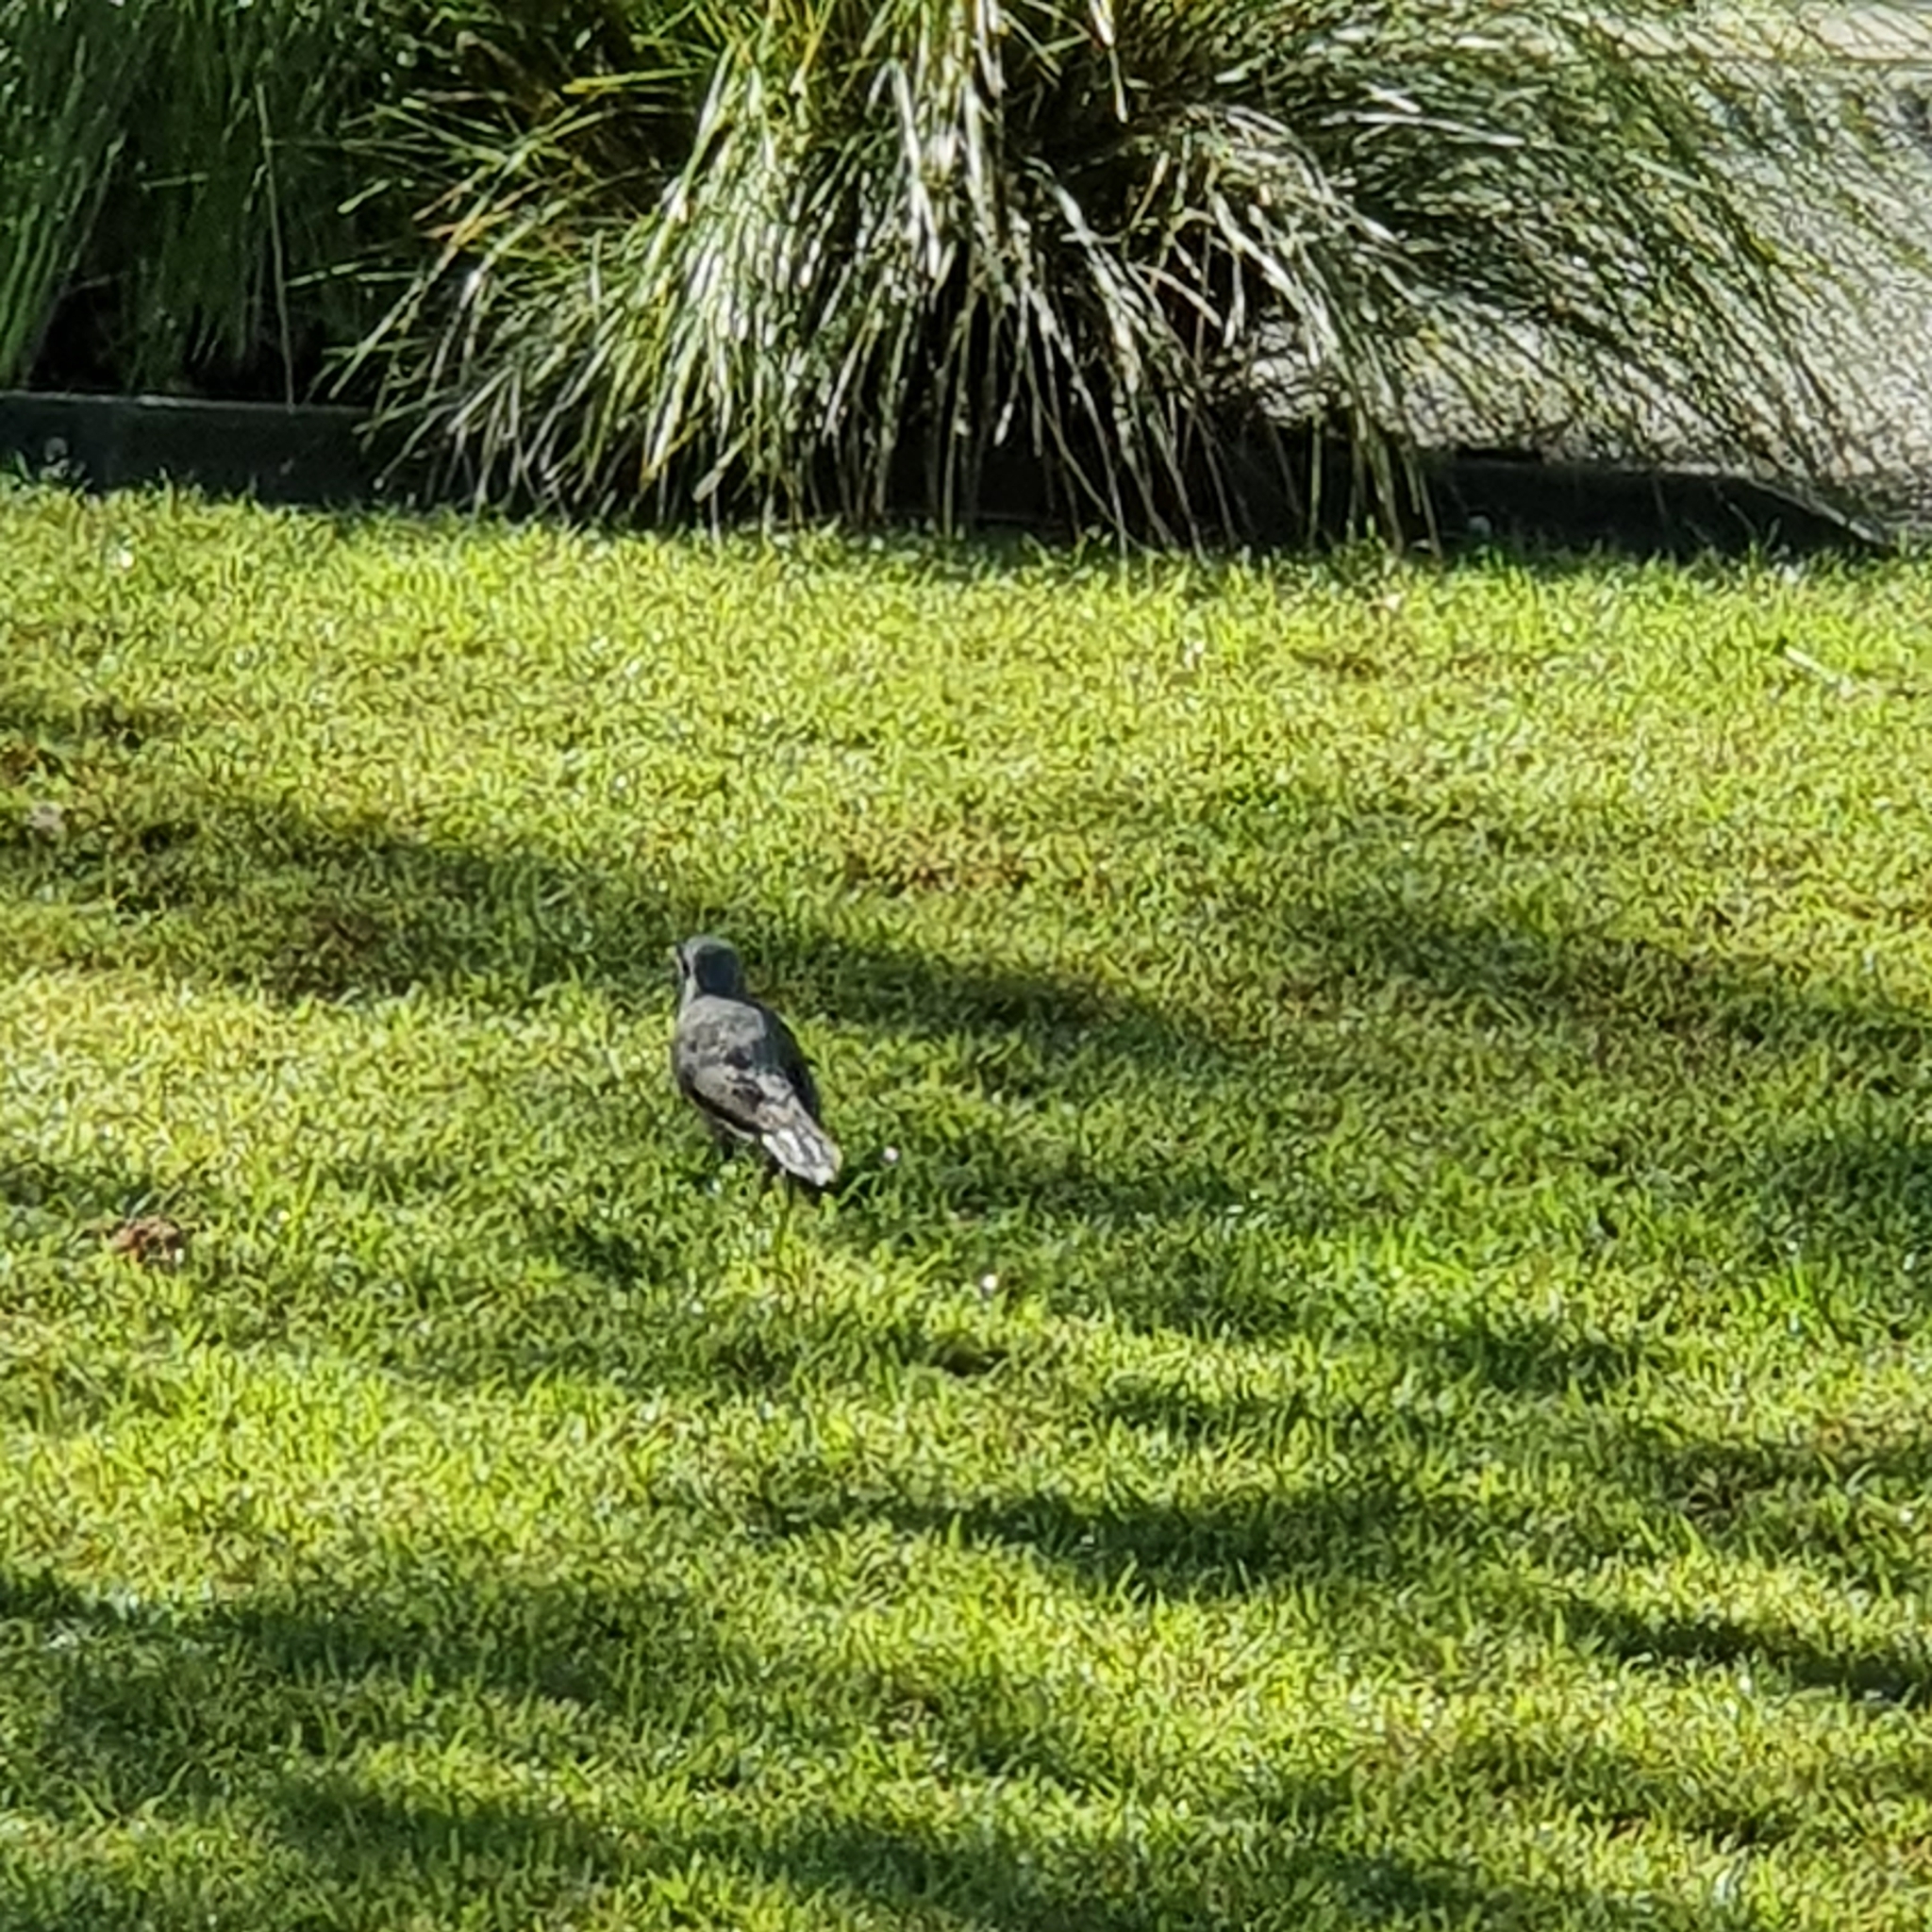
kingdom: Animalia
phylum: Chordata
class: Aves
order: Passeriformes
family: Meliphagidae
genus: Manorina
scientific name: Manorina melanocephala
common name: Noisy miner
